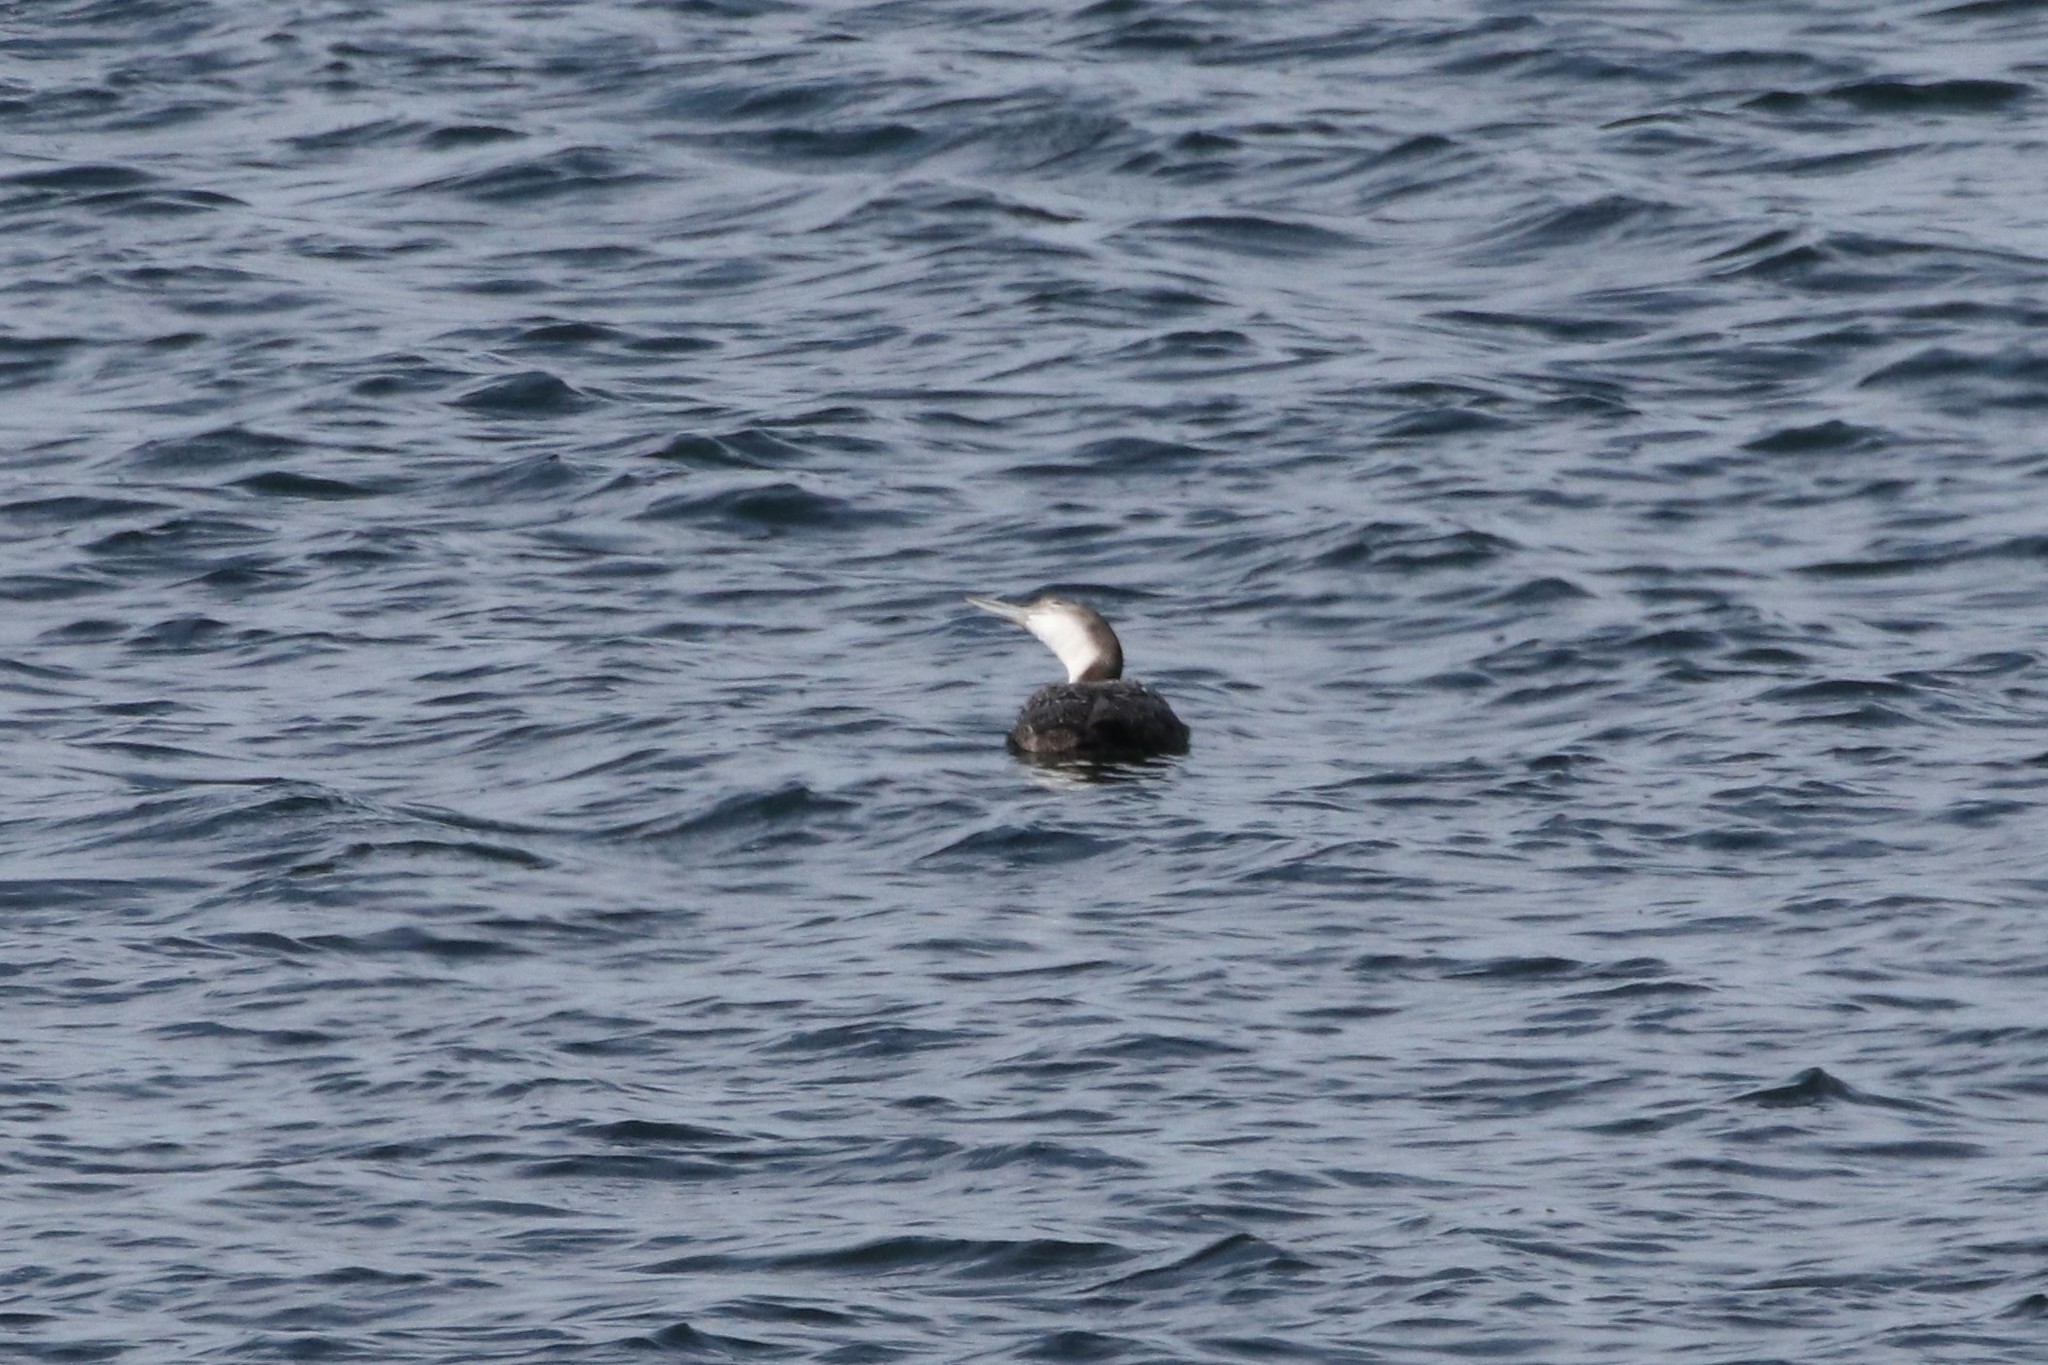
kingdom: Animalia
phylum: Chordata
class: Aves
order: Gaviiformes
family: Gaviidae
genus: Gavia
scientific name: Gavia immer
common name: Common loon
